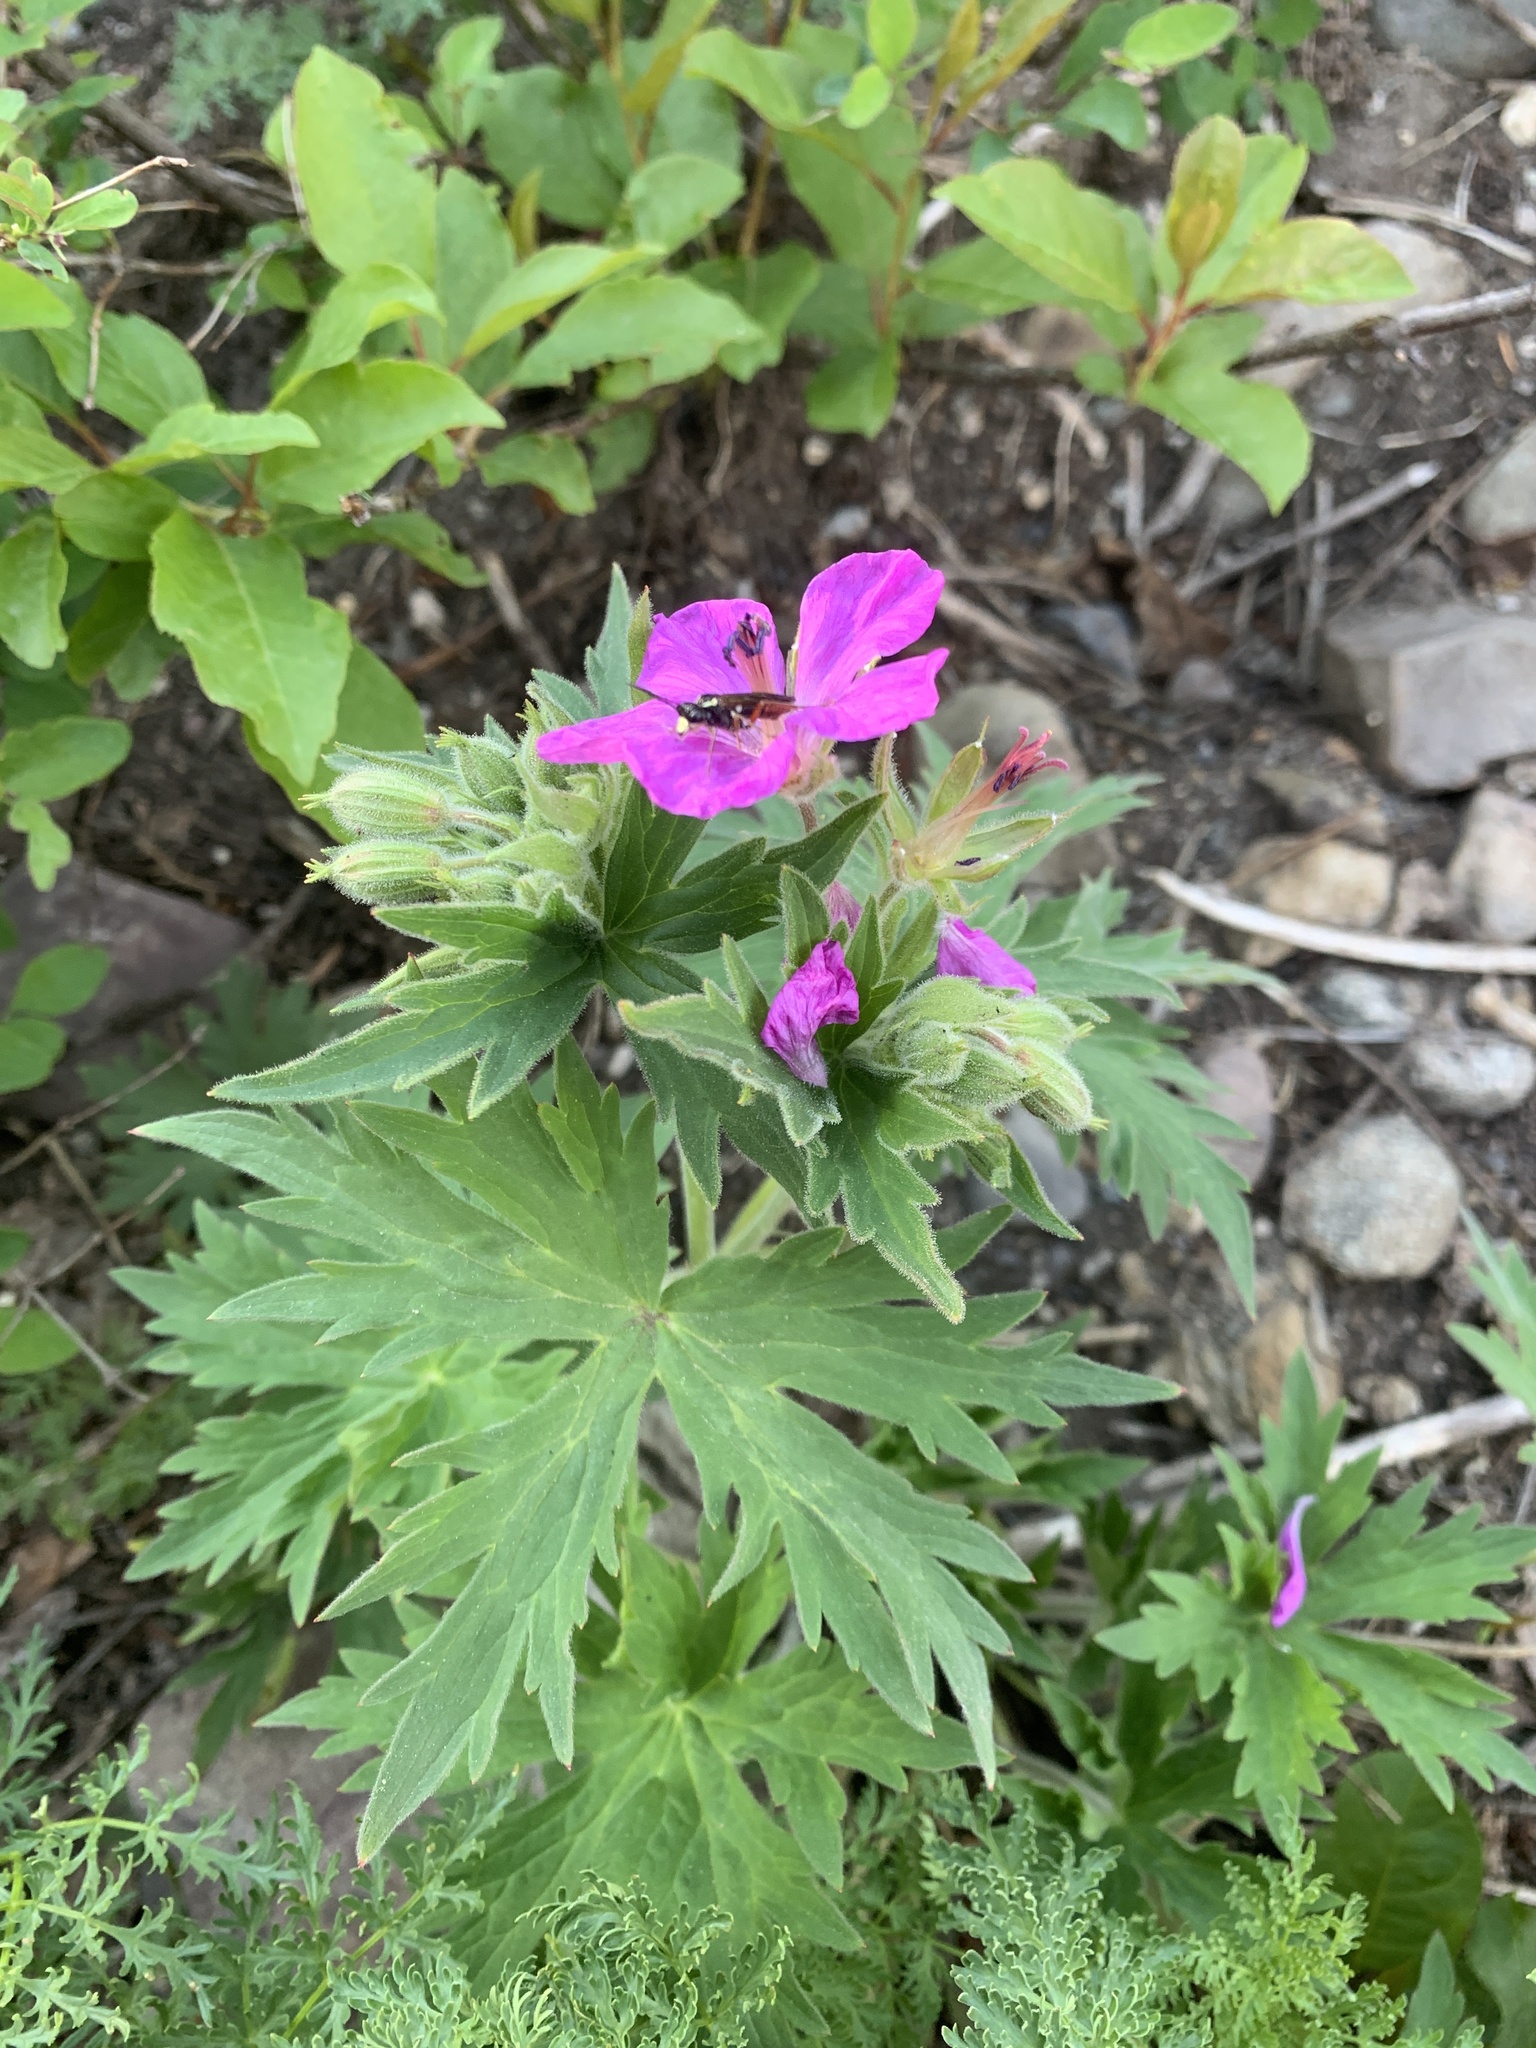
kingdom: Plantae
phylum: Tracheophyta
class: Magnoliopsida
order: Geraniales
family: Geraniaceae
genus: Geranium
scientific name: Geranium viscosissimum
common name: Purple geranium
